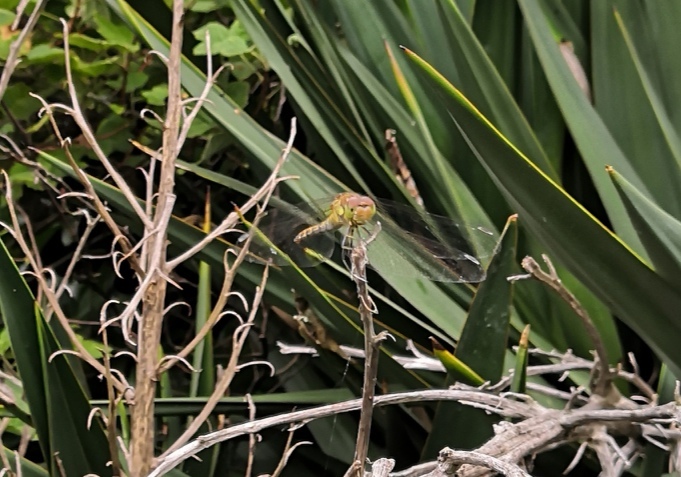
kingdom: Animalia
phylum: Arthropoda
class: Insecta
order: Odonata
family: Libellulidae
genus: Sympetrum
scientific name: Sympetrum striolatum
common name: Common darter
